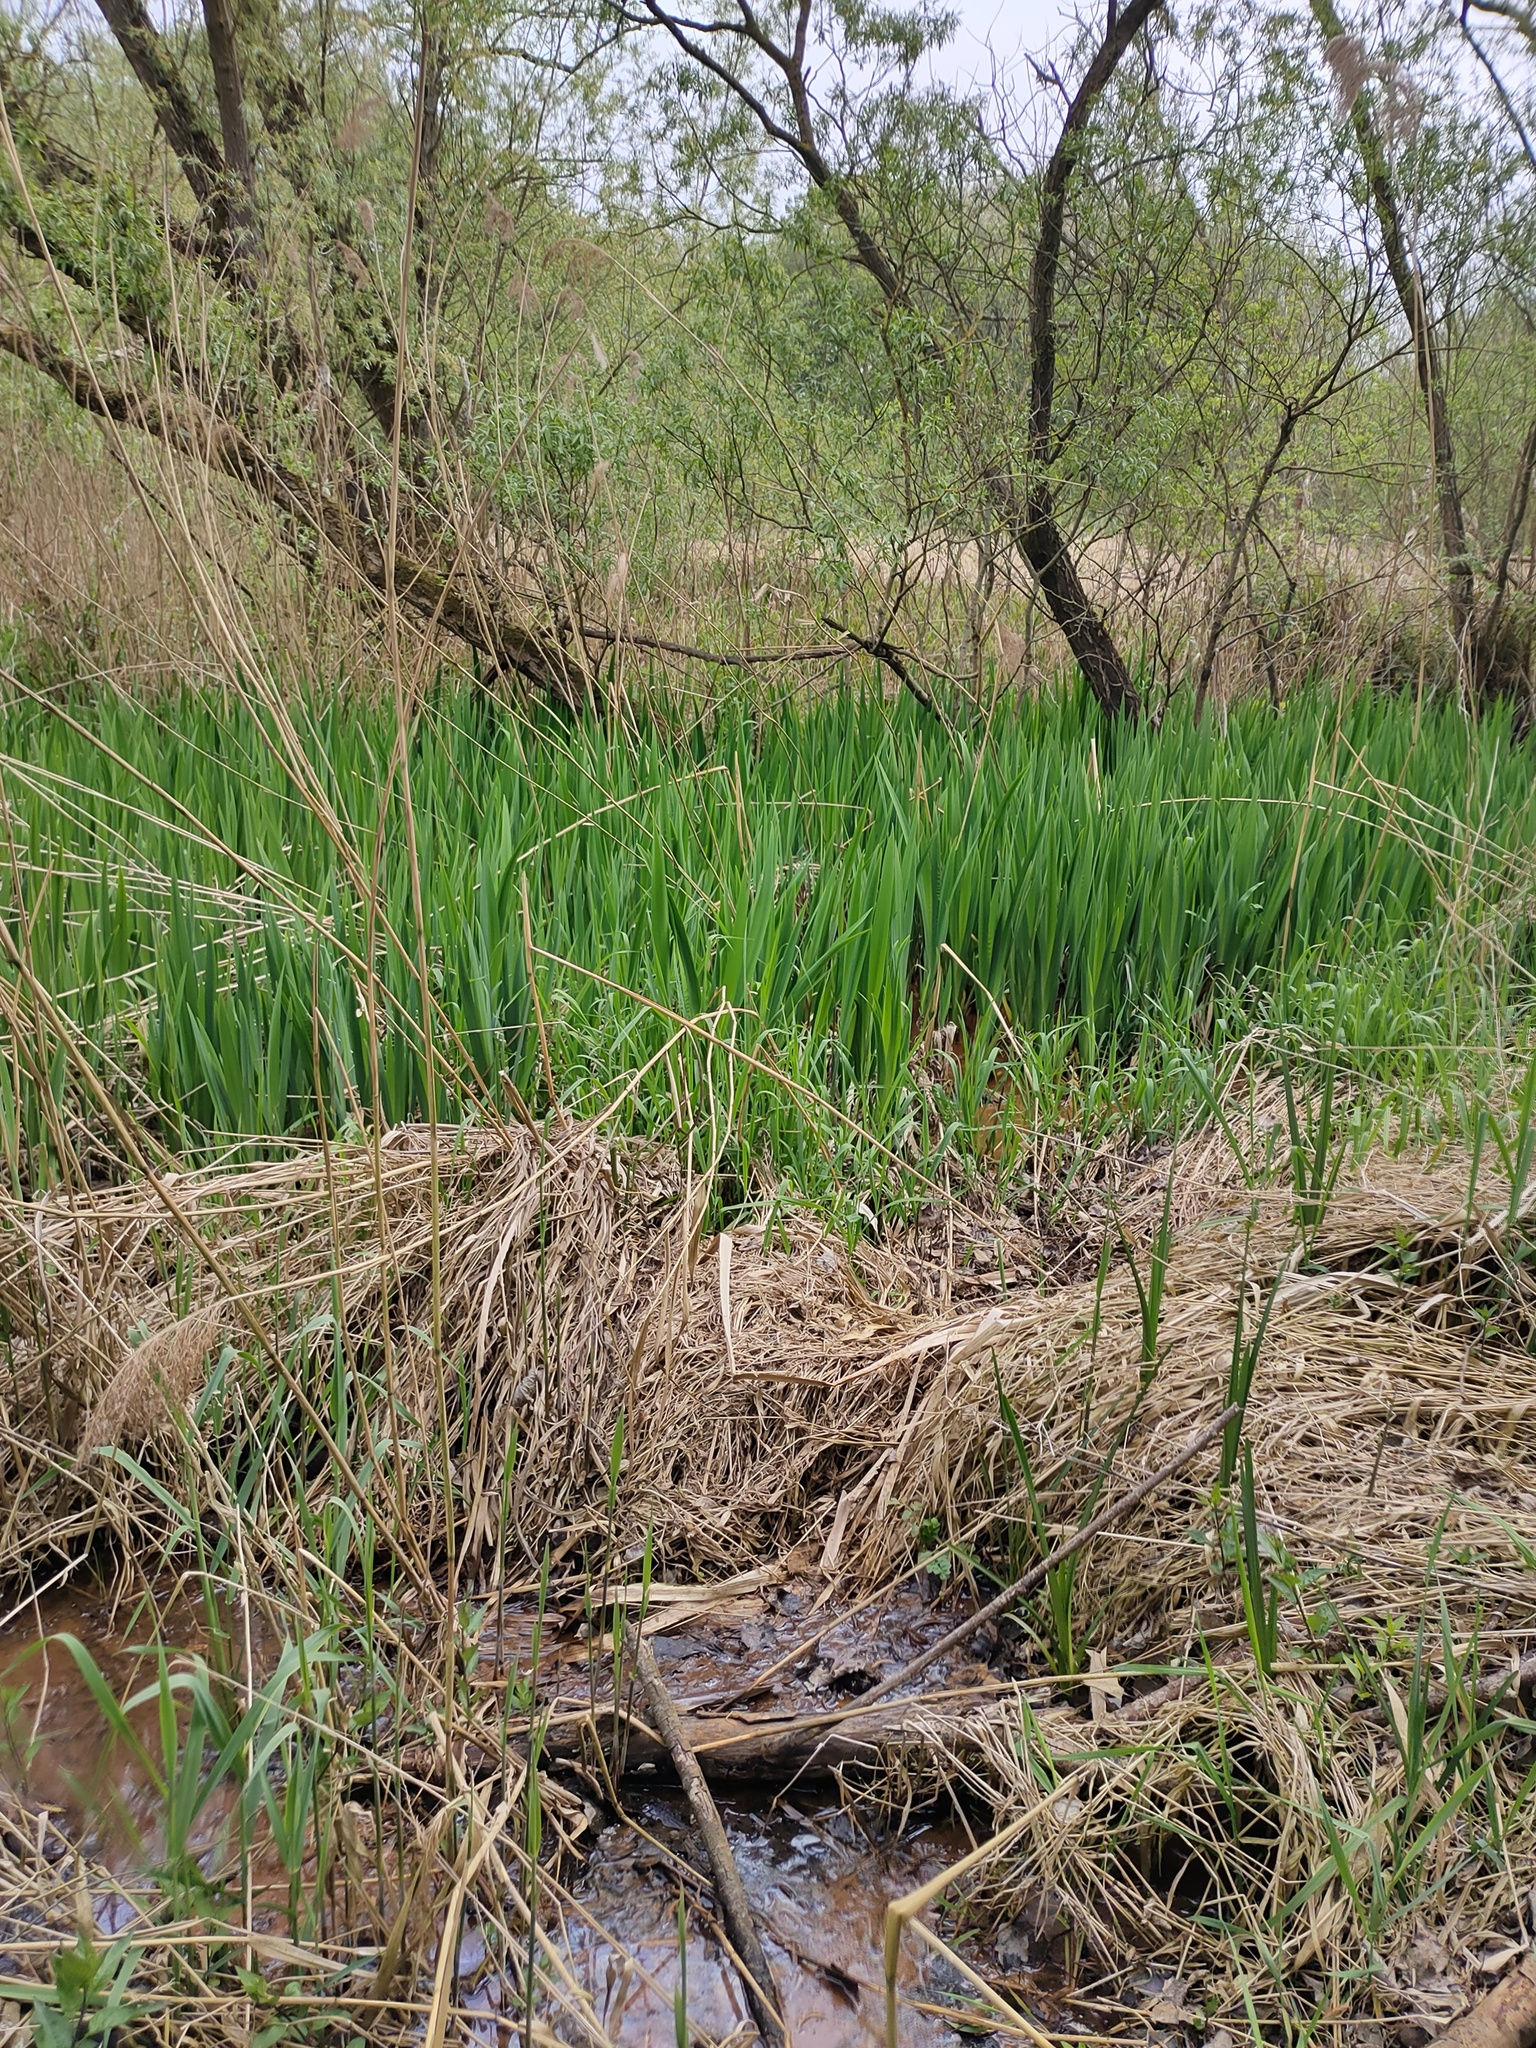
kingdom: Plantae
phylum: Tracheophyta
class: Liliopsida
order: Asparagales
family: Iridaceae
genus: Iris
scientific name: Iris pseudacorus
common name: Yellow flag
